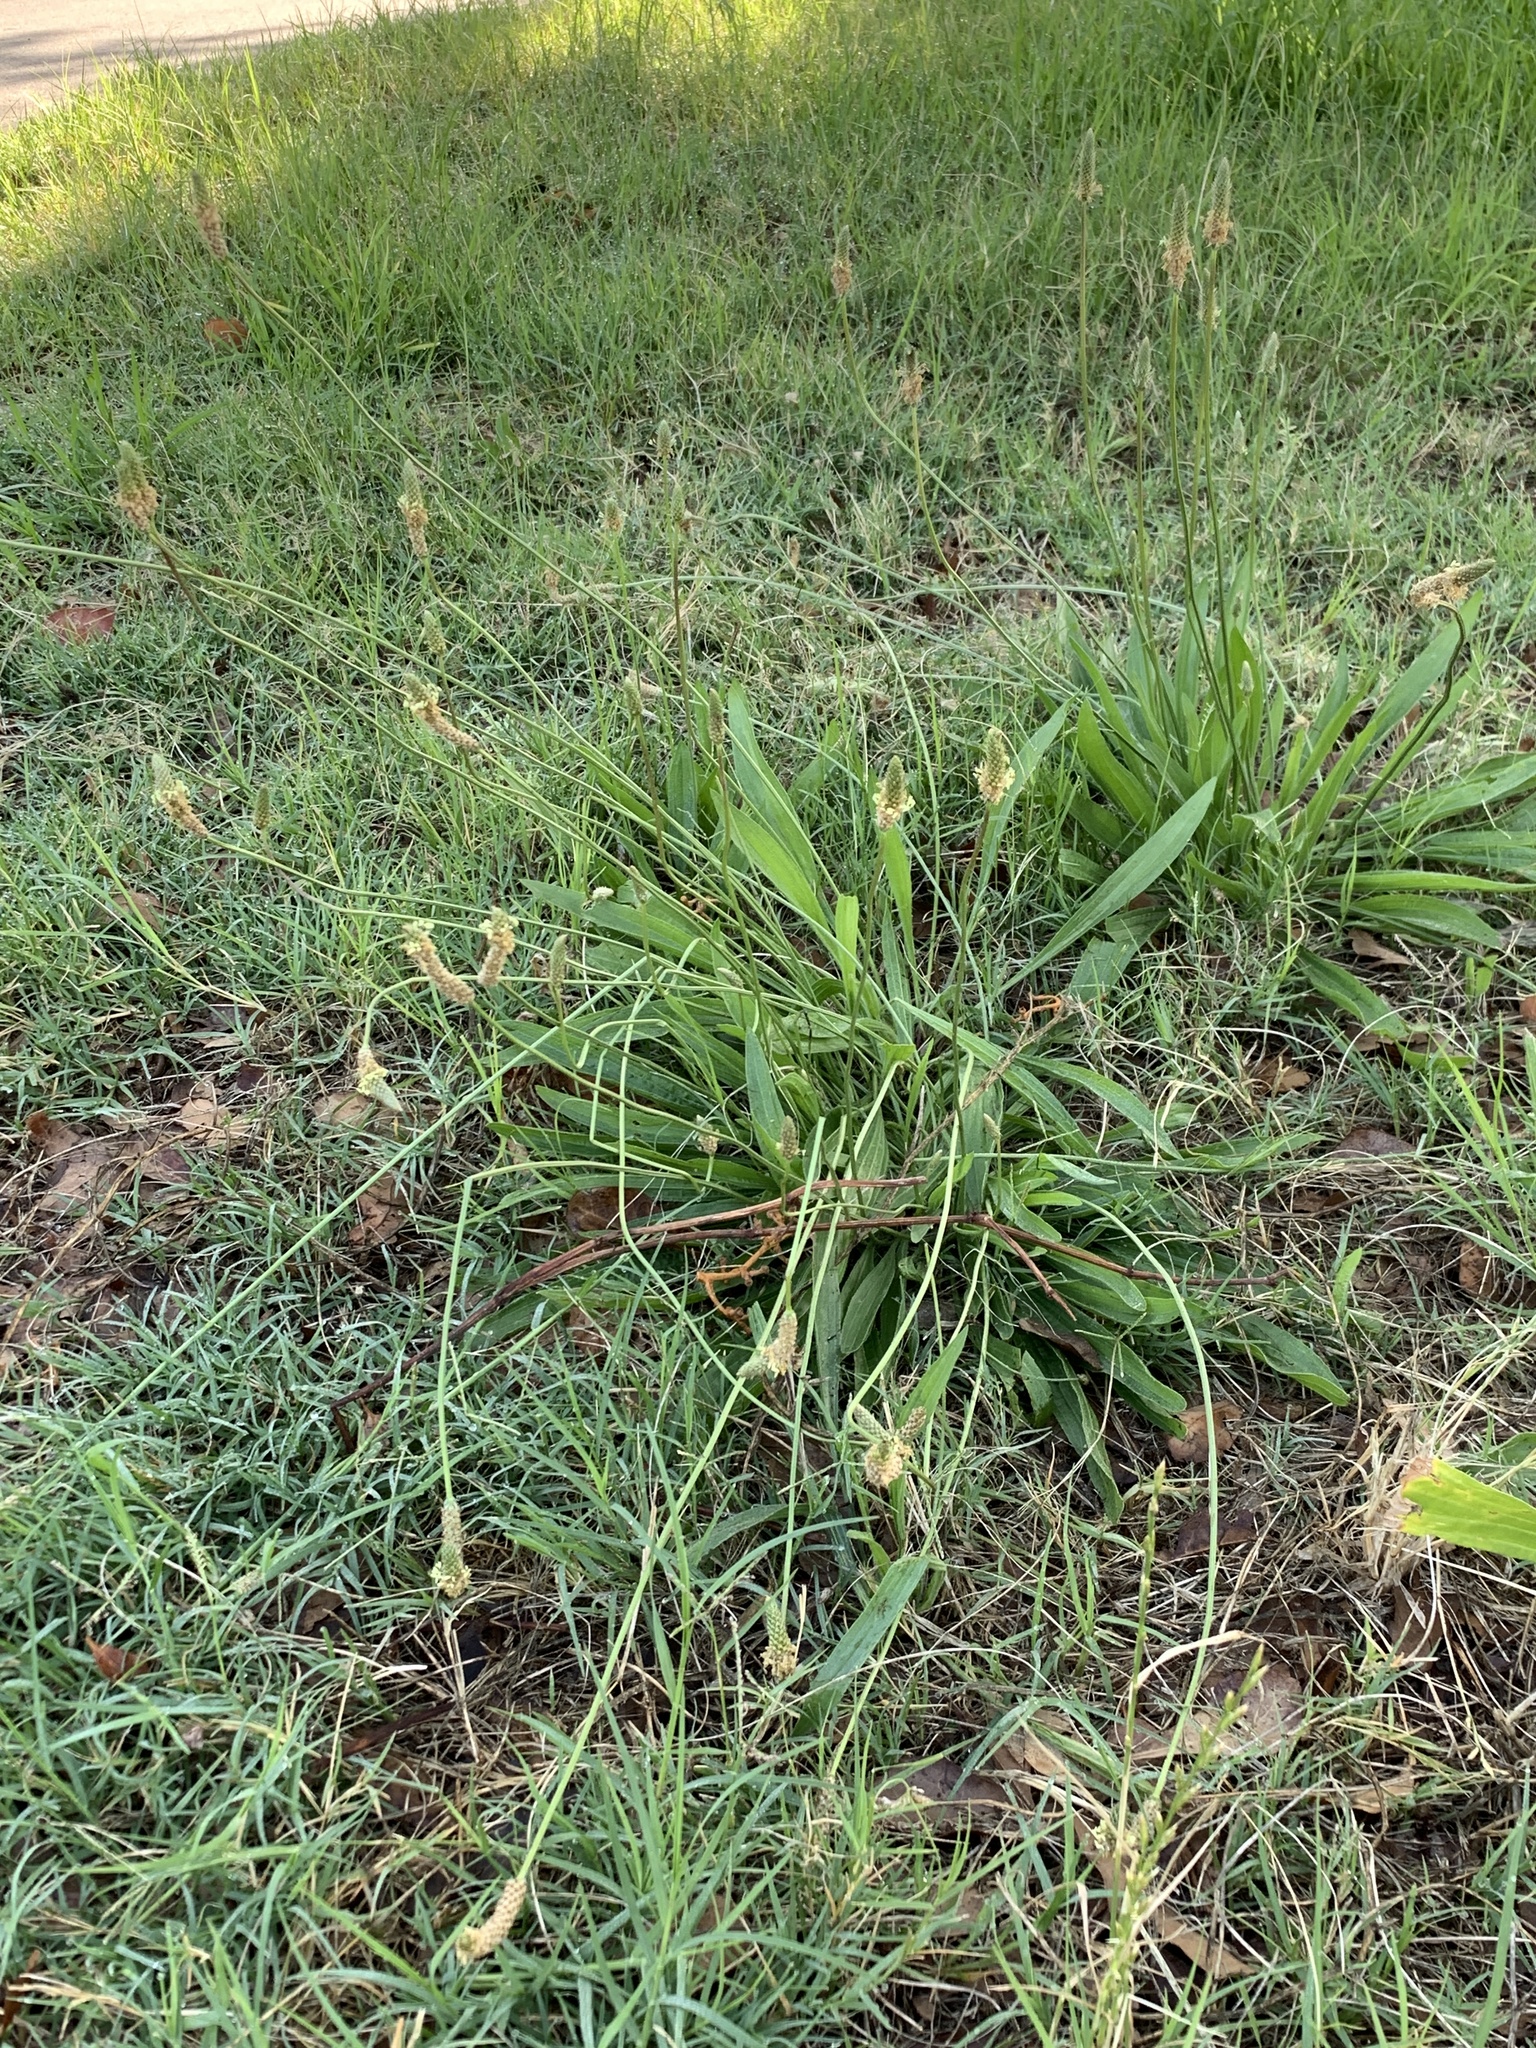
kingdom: Plantae
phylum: Tracheophyta
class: Magnoliopsida
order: Lamiales
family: Plantaginaceae
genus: Plantago
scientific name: Plantago lanceolata
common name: Ribwort plantain
